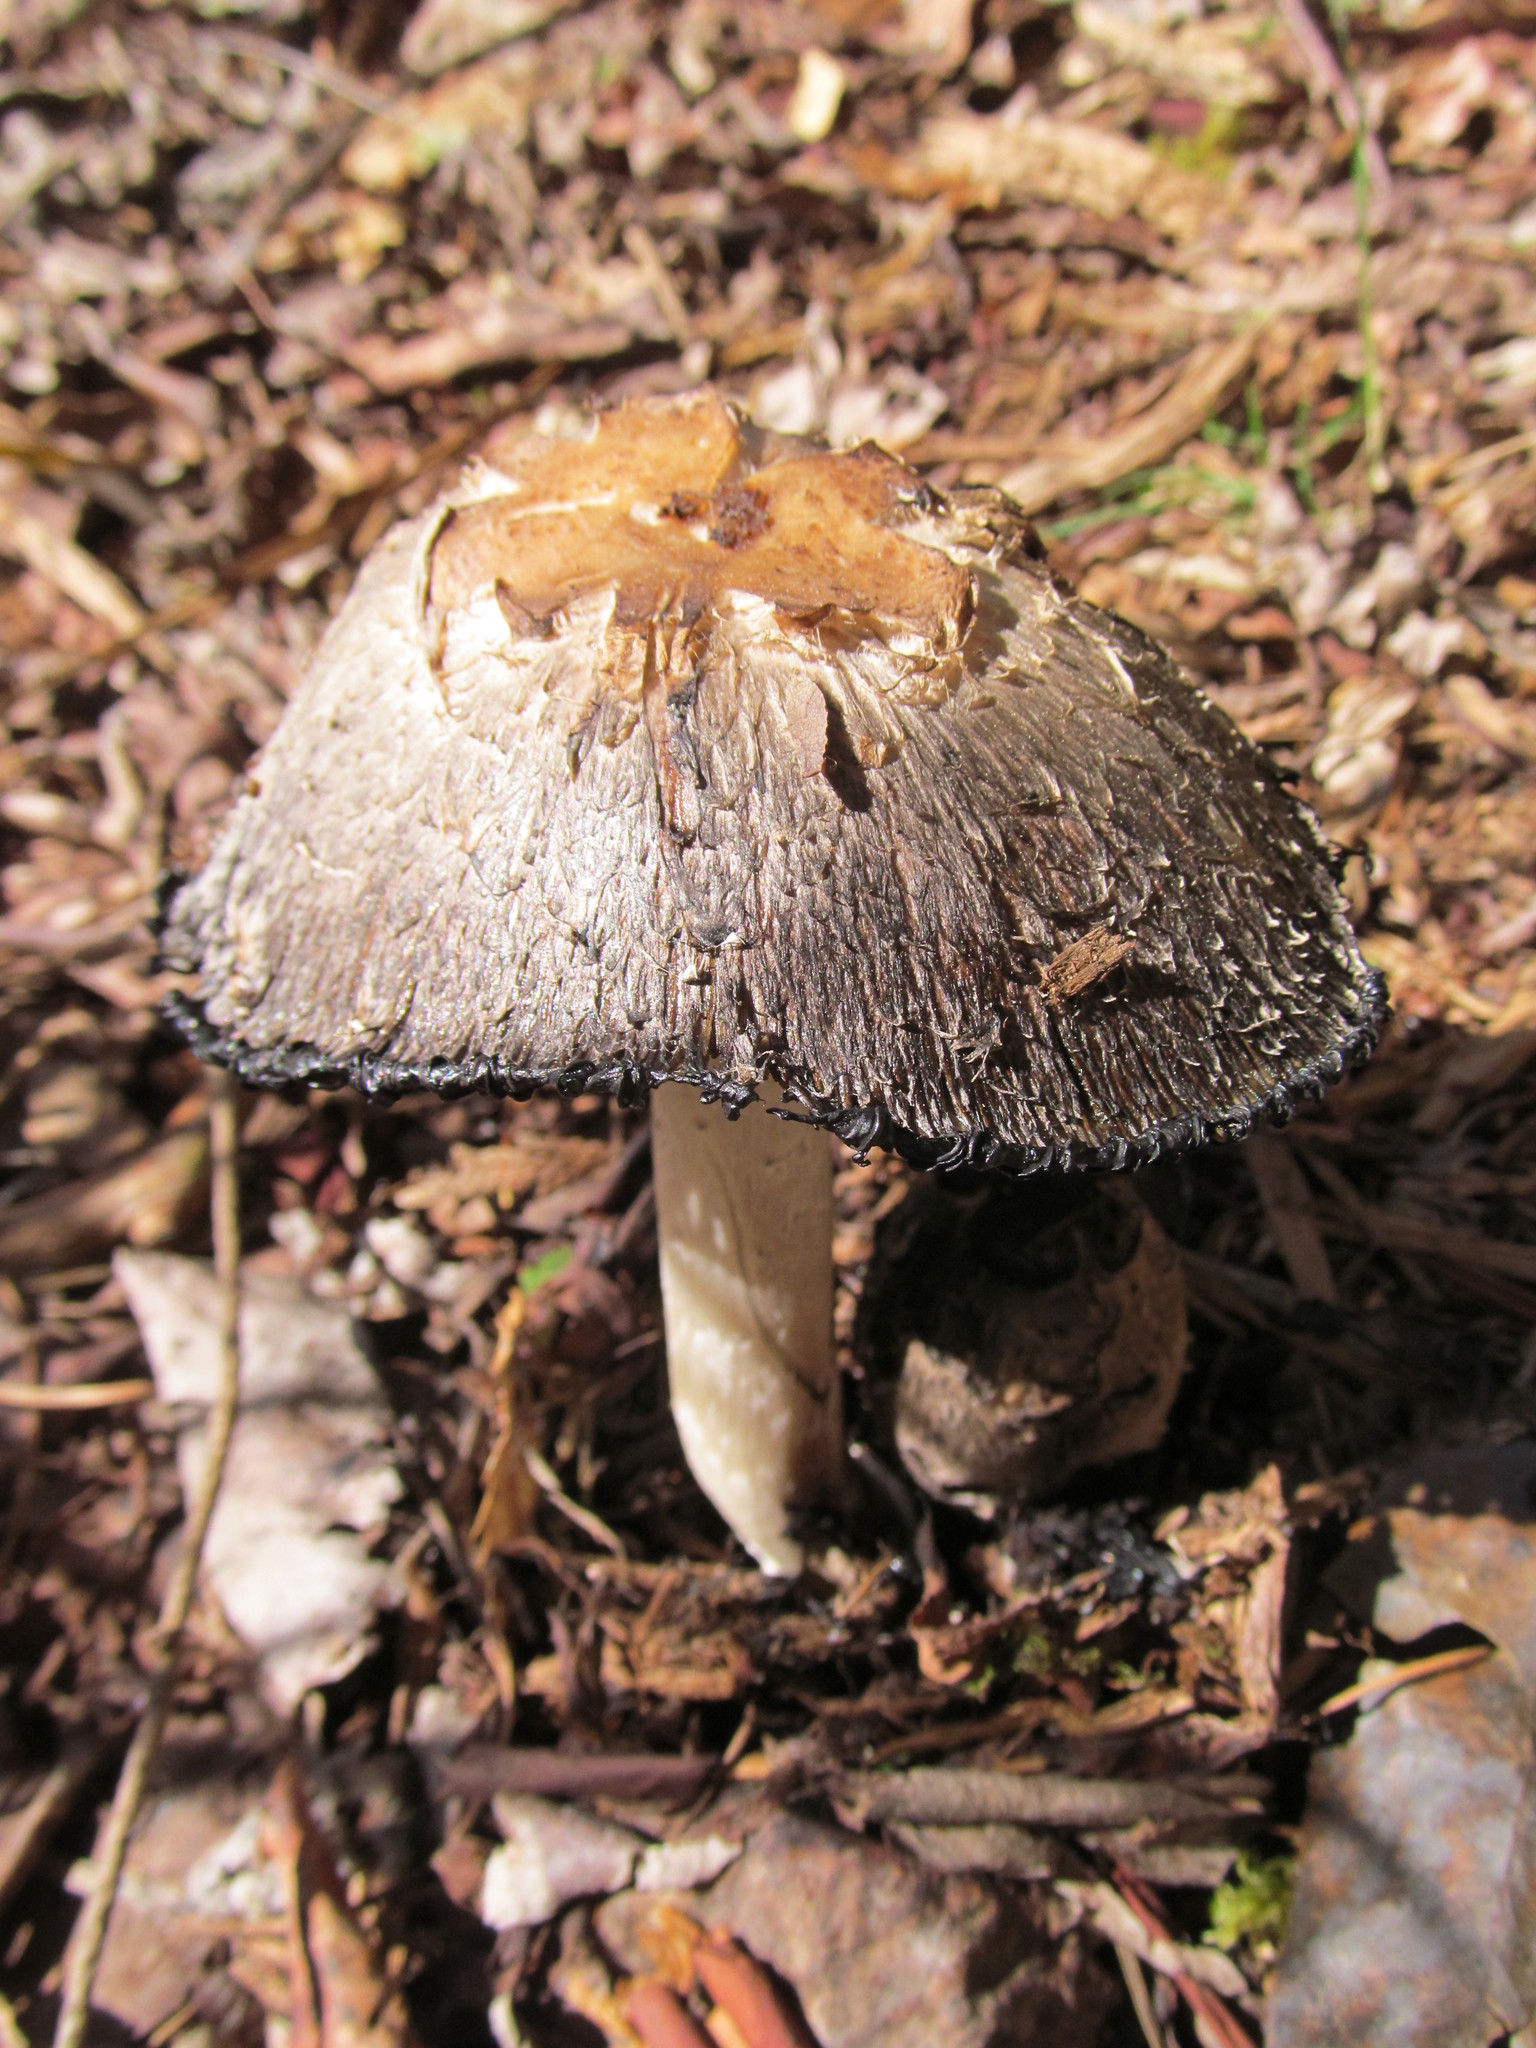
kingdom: Fungi
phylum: Basidiomycota
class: Agaricomycetes
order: Agaricales
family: Agaricaceae
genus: Coprinus
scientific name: Coprinus comatus
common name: Lawyer's wig
